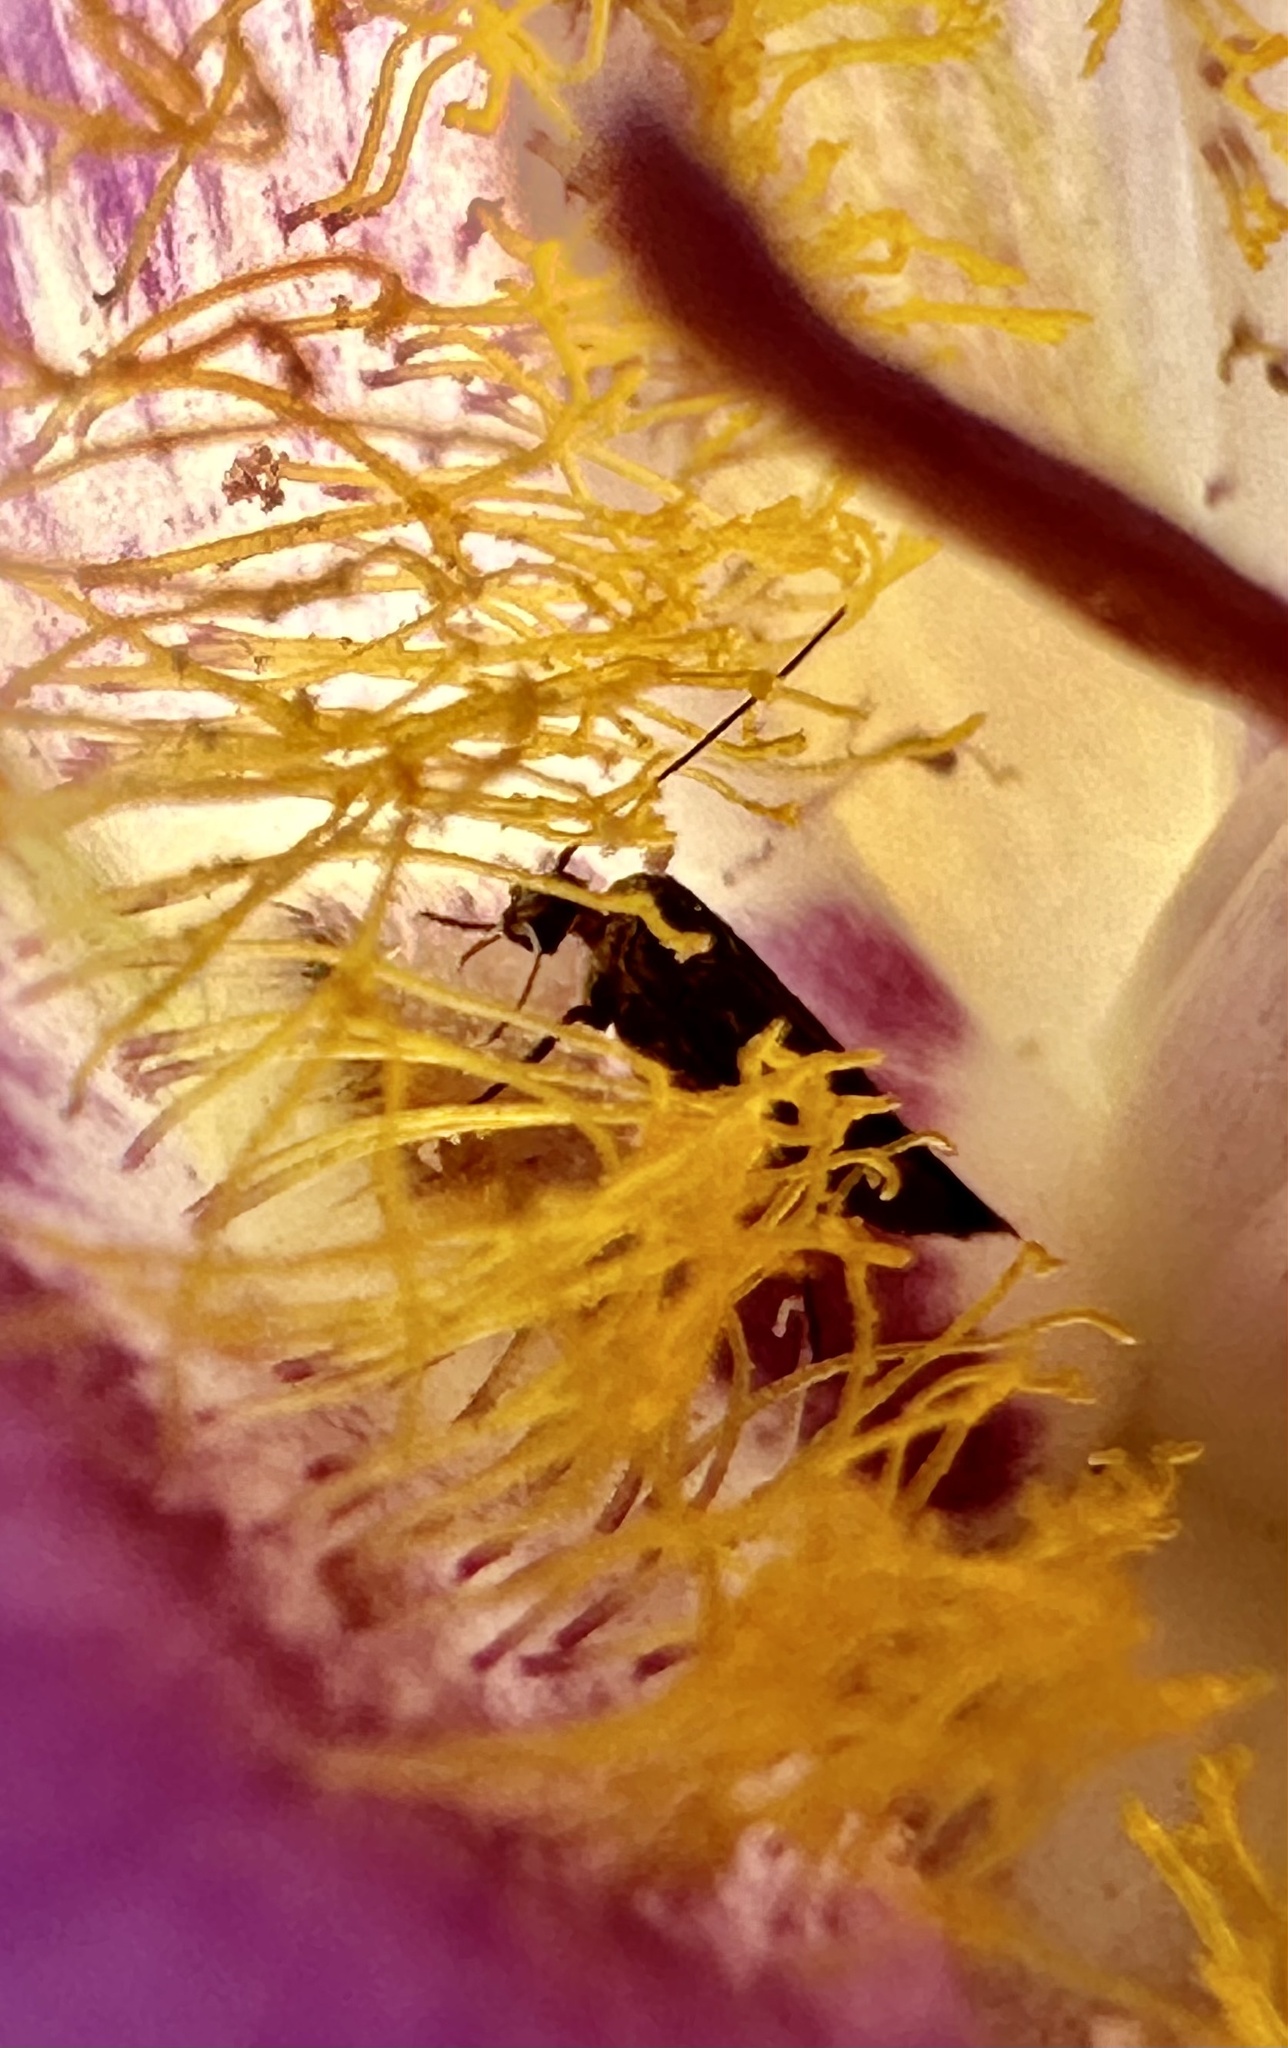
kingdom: Plantae
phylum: Tracheophyta
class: Liliopsida
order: Liliales
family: Liliaceae
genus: Calochortus
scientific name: Calochortus macrocarpus
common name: Green-band mariposa lily
